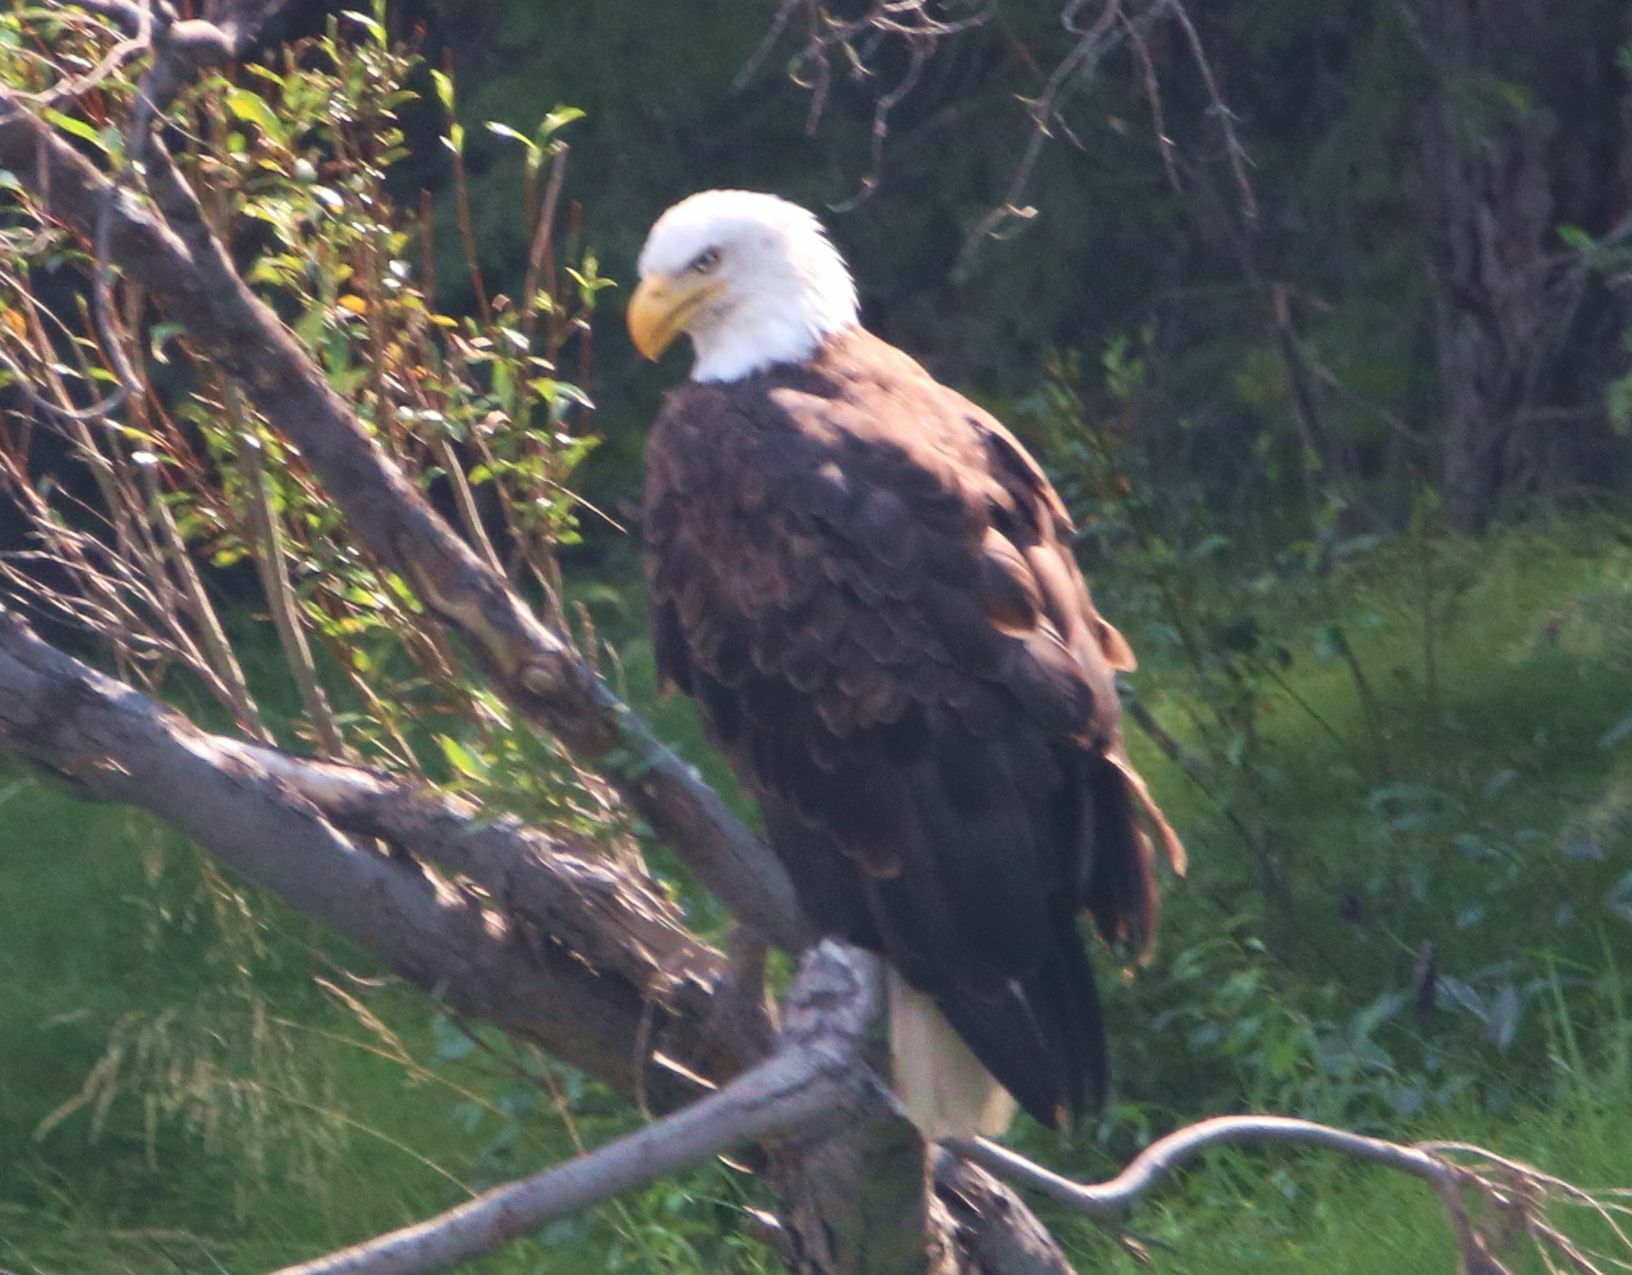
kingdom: Animalia
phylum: Chordata
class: Aves
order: Accipitriformes
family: Accipitridae
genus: Haliaeetus
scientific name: Haliaeetus leucocephalus
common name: Bald eagle
